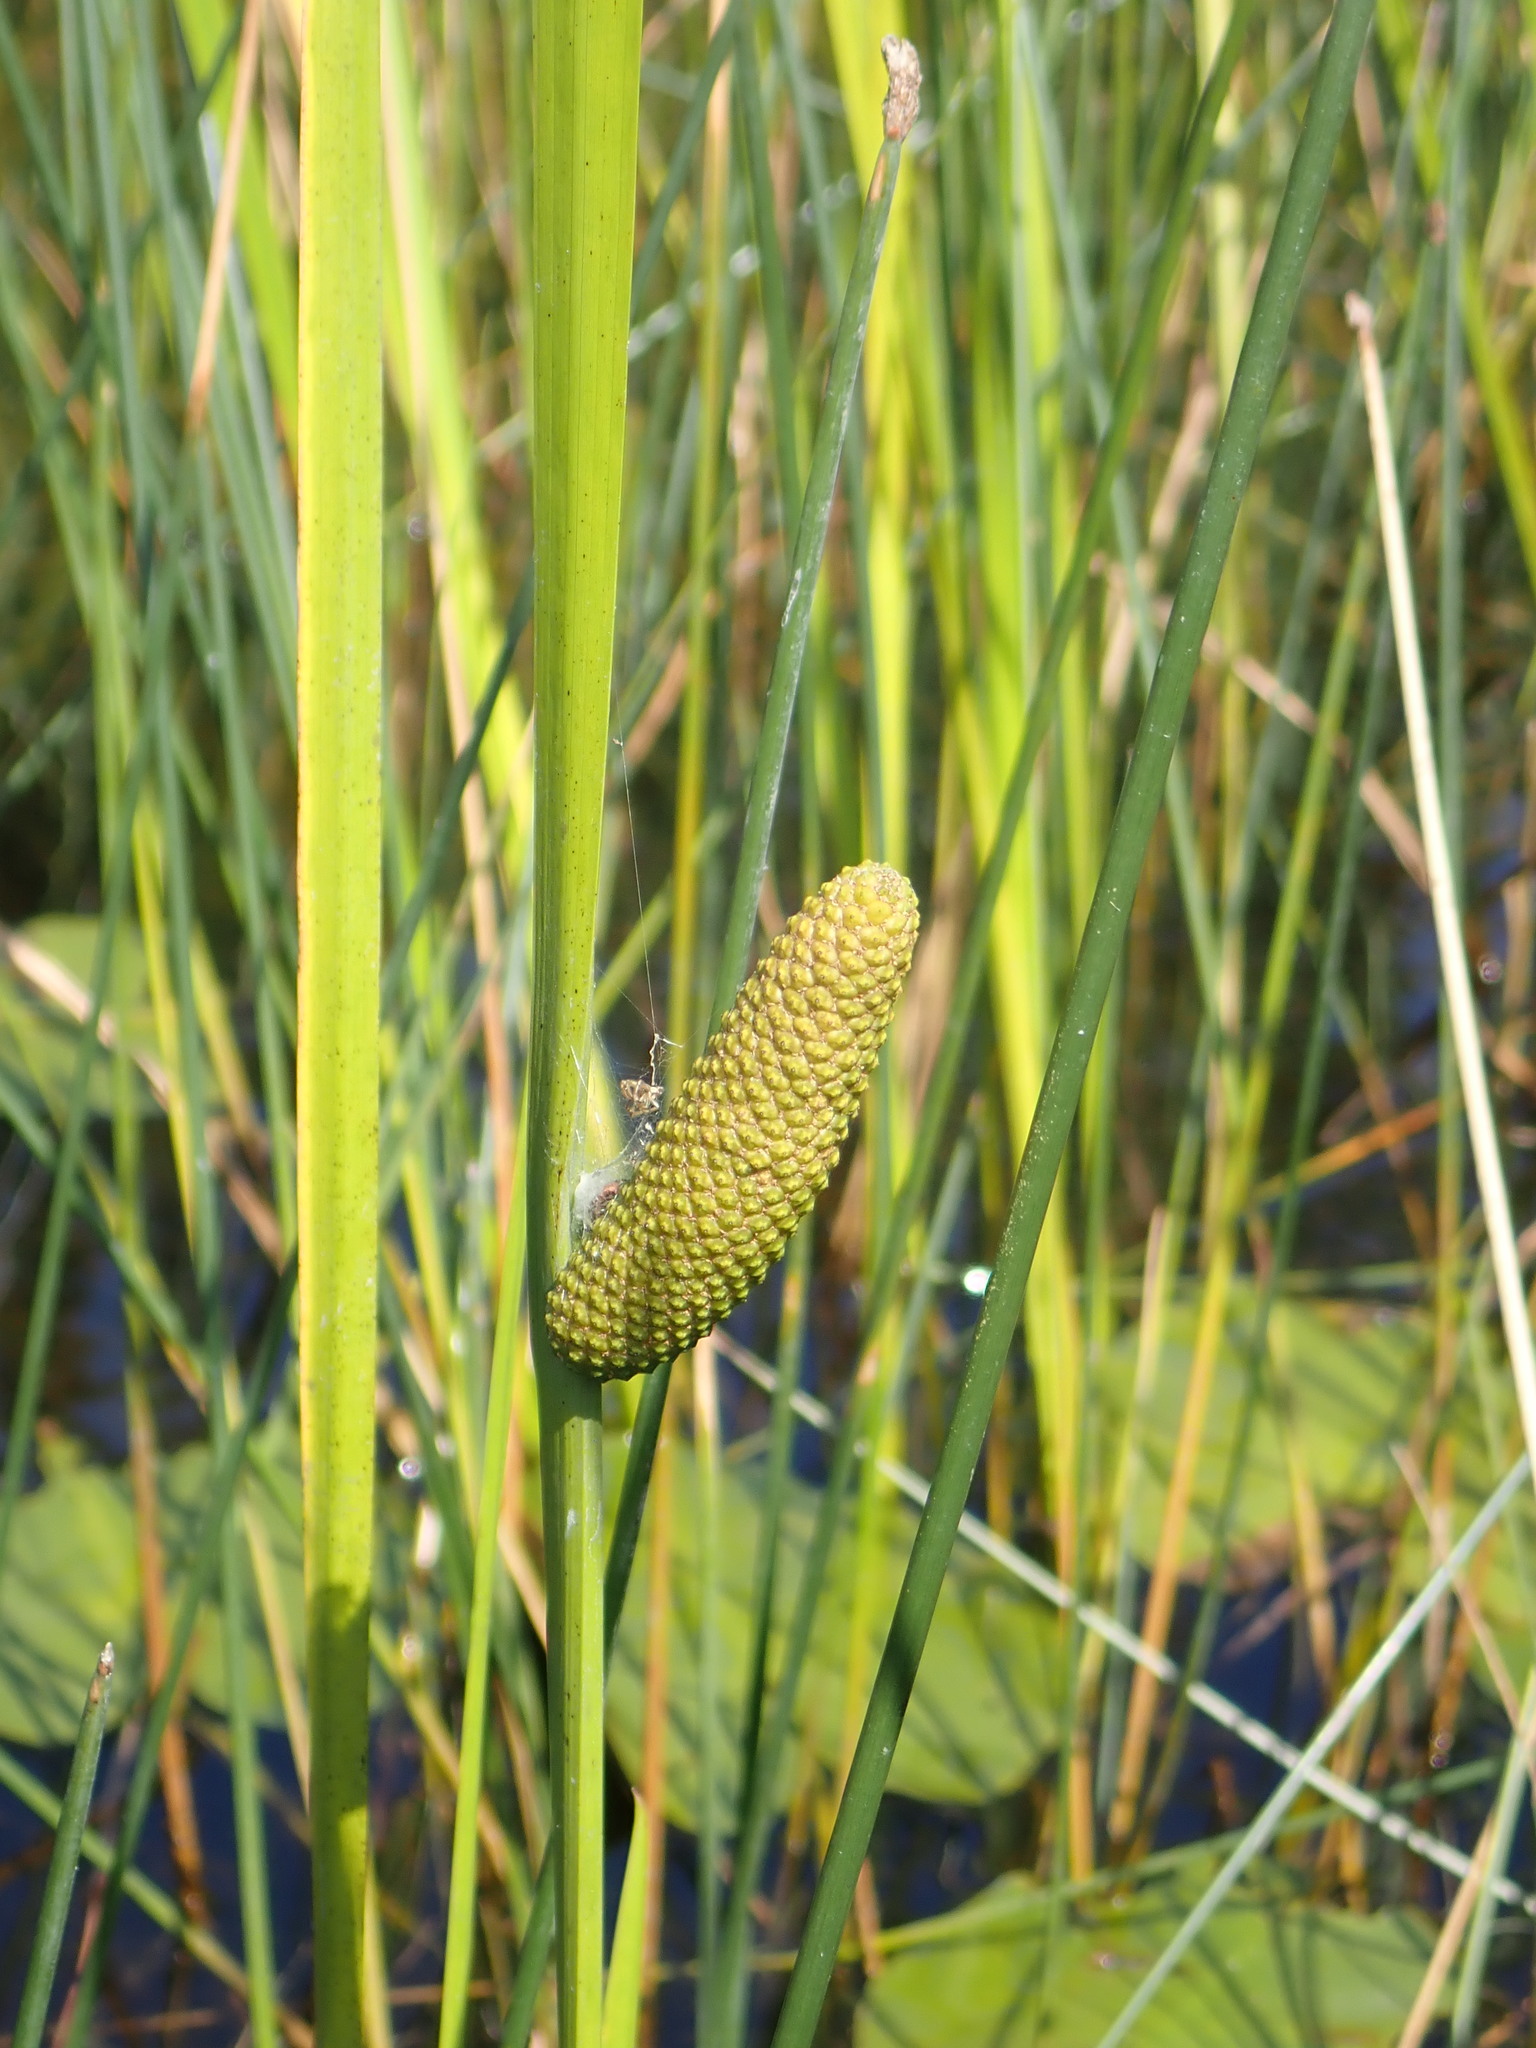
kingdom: Plantae
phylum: Tracheophyta
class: Liliopsida
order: Acorales
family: Acoraceae
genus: Acorus
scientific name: Acorus calamus
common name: Sweet-flag
